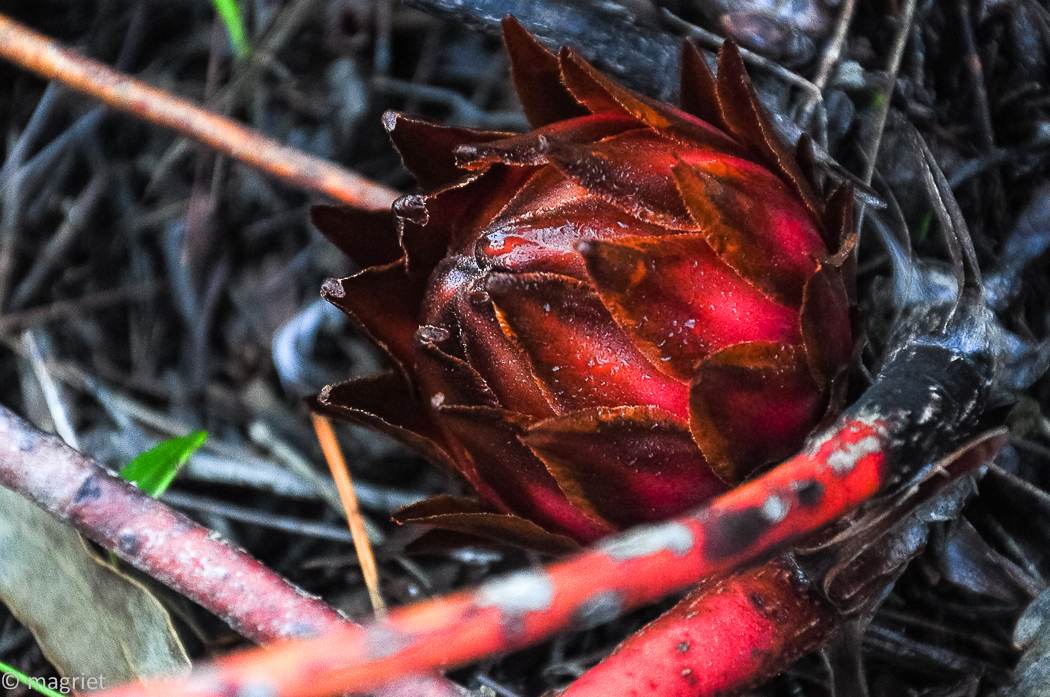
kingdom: Plantae
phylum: Tracheophyta
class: Magnoliopsida
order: Proteales
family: Proteaceae
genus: Protea
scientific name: Protea cordata
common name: Heart-leaf sugarbush
